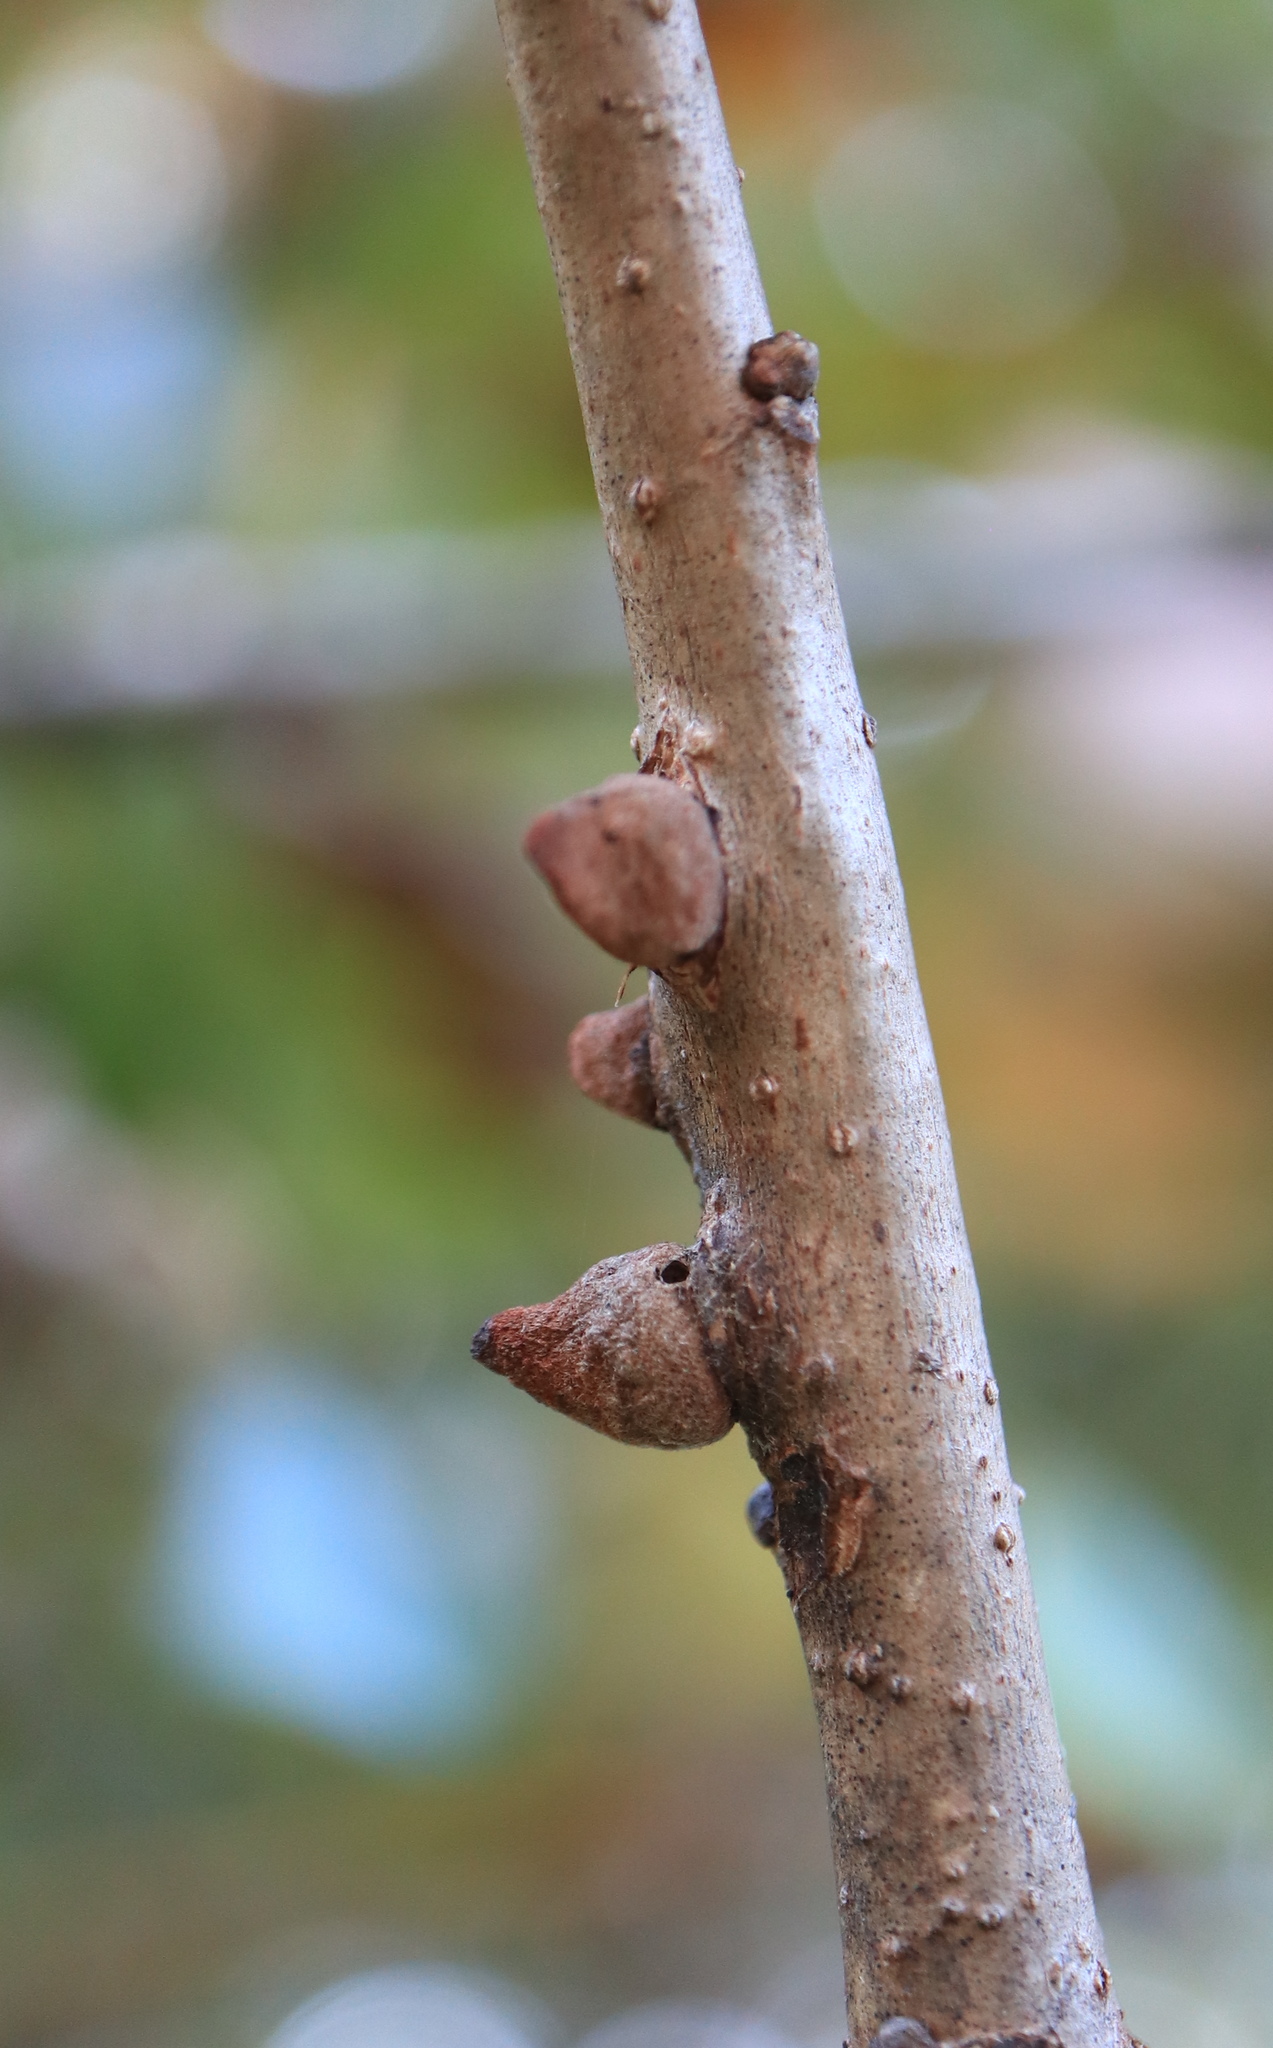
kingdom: Animalia
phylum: Arthropoda
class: Insecta
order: Hymenoptera
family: Cynipidae
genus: Disholcaspis
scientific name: Disholcaspis
